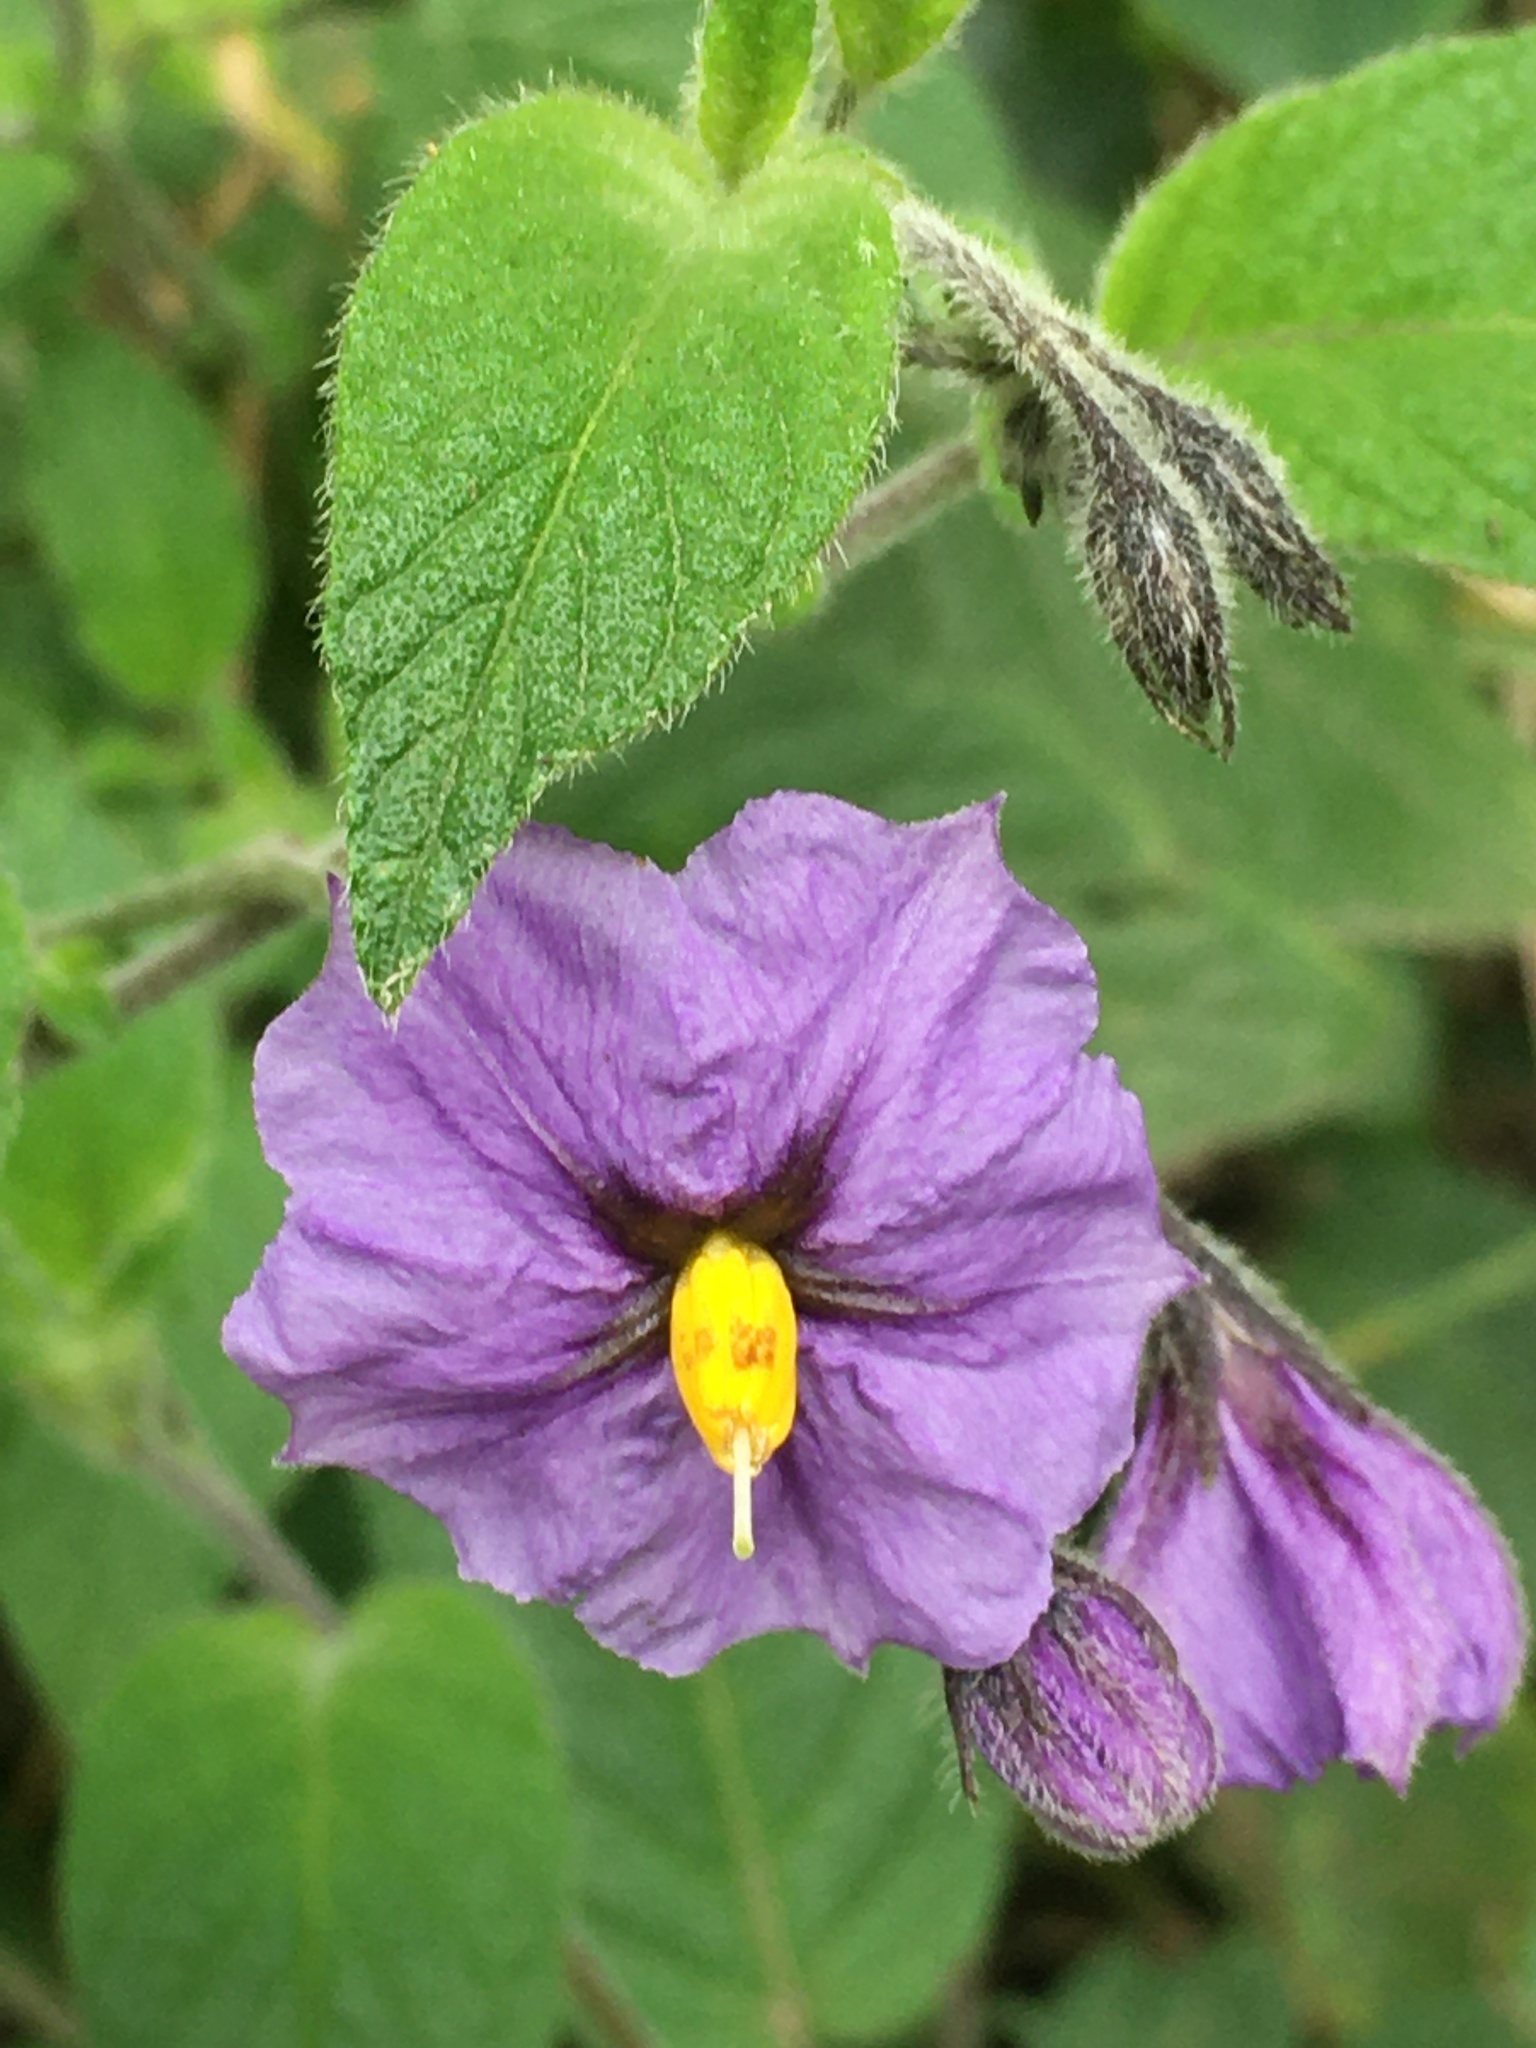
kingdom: Plantae
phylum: Tracheophyta
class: Magnoliopsida
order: Solanales
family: Solanaceae
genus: Solanum
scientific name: Solanum caripense
